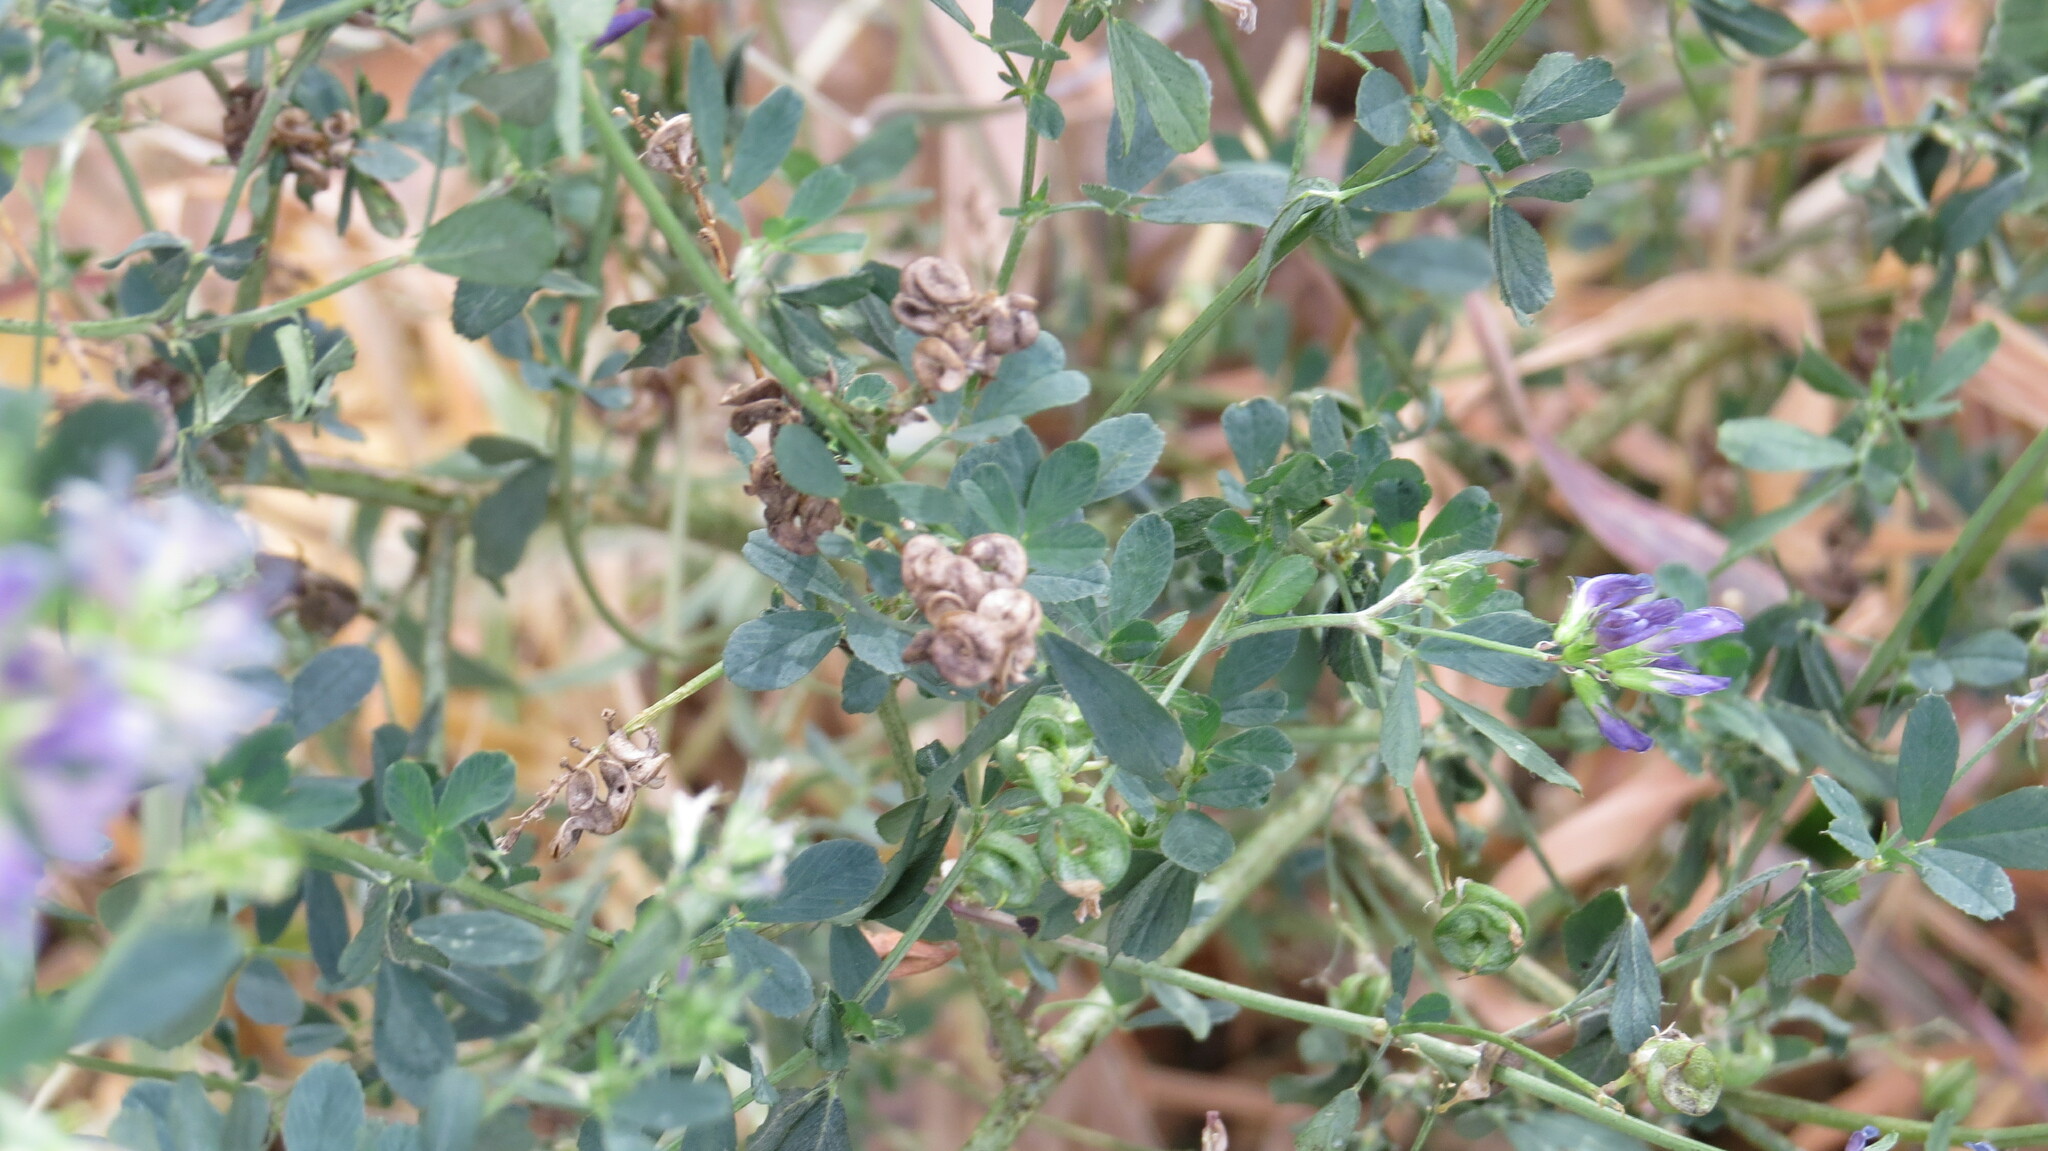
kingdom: Plantae
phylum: Tracheophyta
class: Magnoliopsida
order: Fabales
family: Fabaceae
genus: Medicago
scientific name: Medicago sativa
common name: Alfalfa
